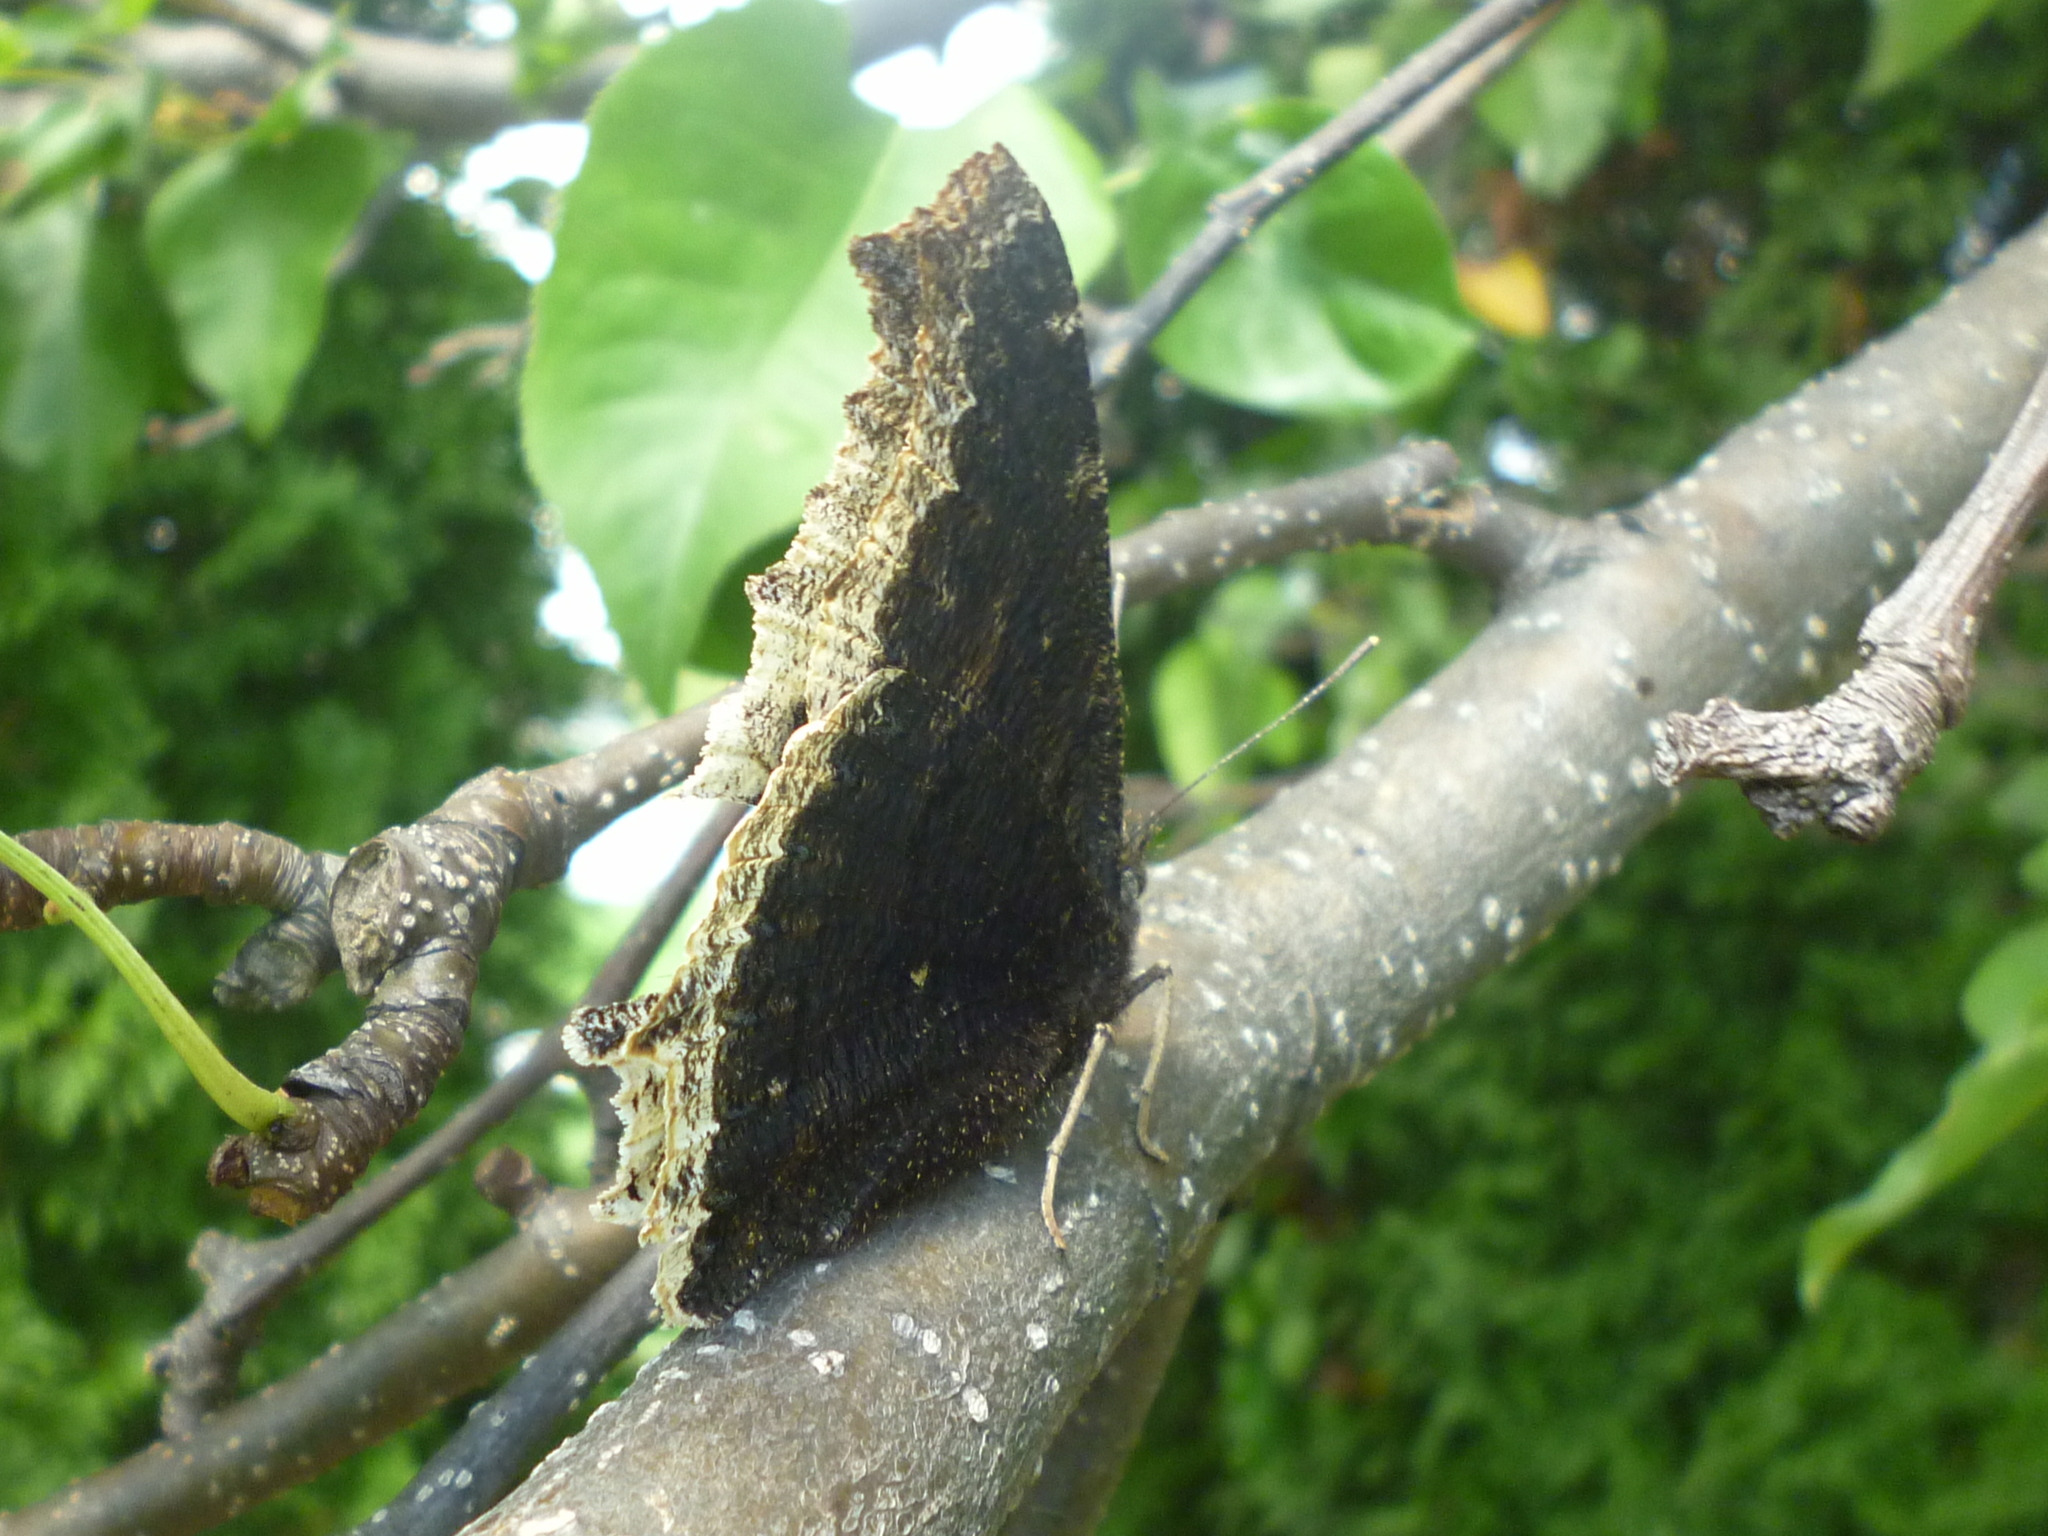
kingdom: Animalia
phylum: Arthropoda
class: Insecta
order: Lepidoptera
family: Nymphalidae
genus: Nymphalis
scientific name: Nymphalis antiopa
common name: Camberwell beauty
